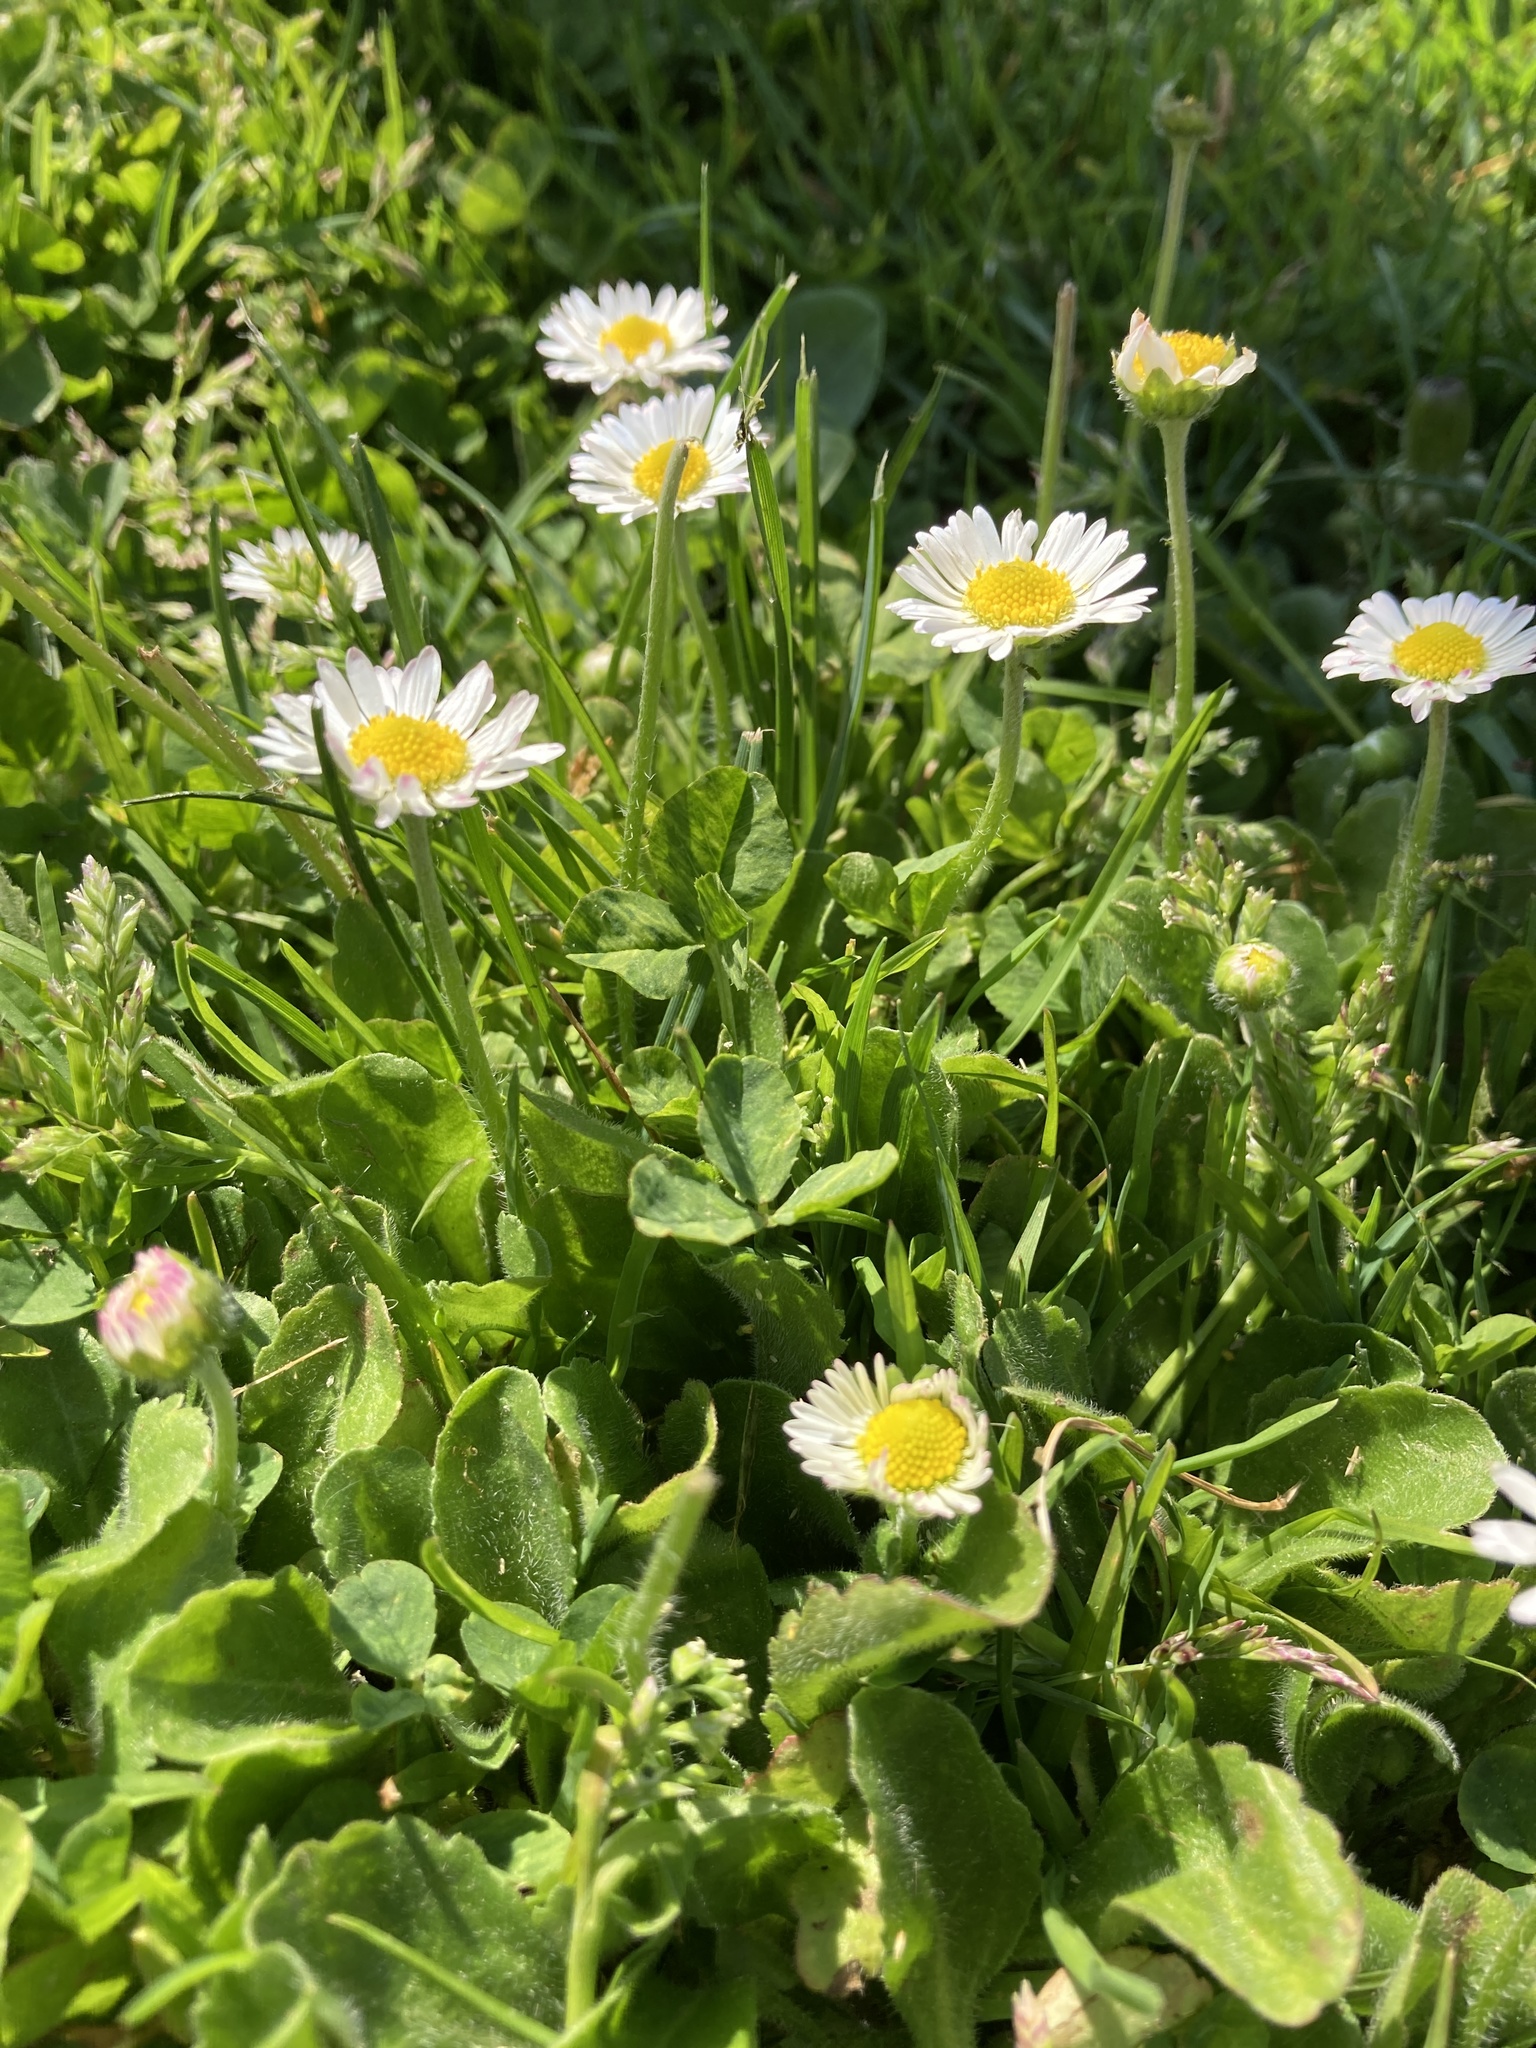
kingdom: Plantae
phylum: Tracheophyta
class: Magnoliopsida
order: Asterales
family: Asteraceae
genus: Bellis
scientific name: Bellis perennis
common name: Lawndaisy
